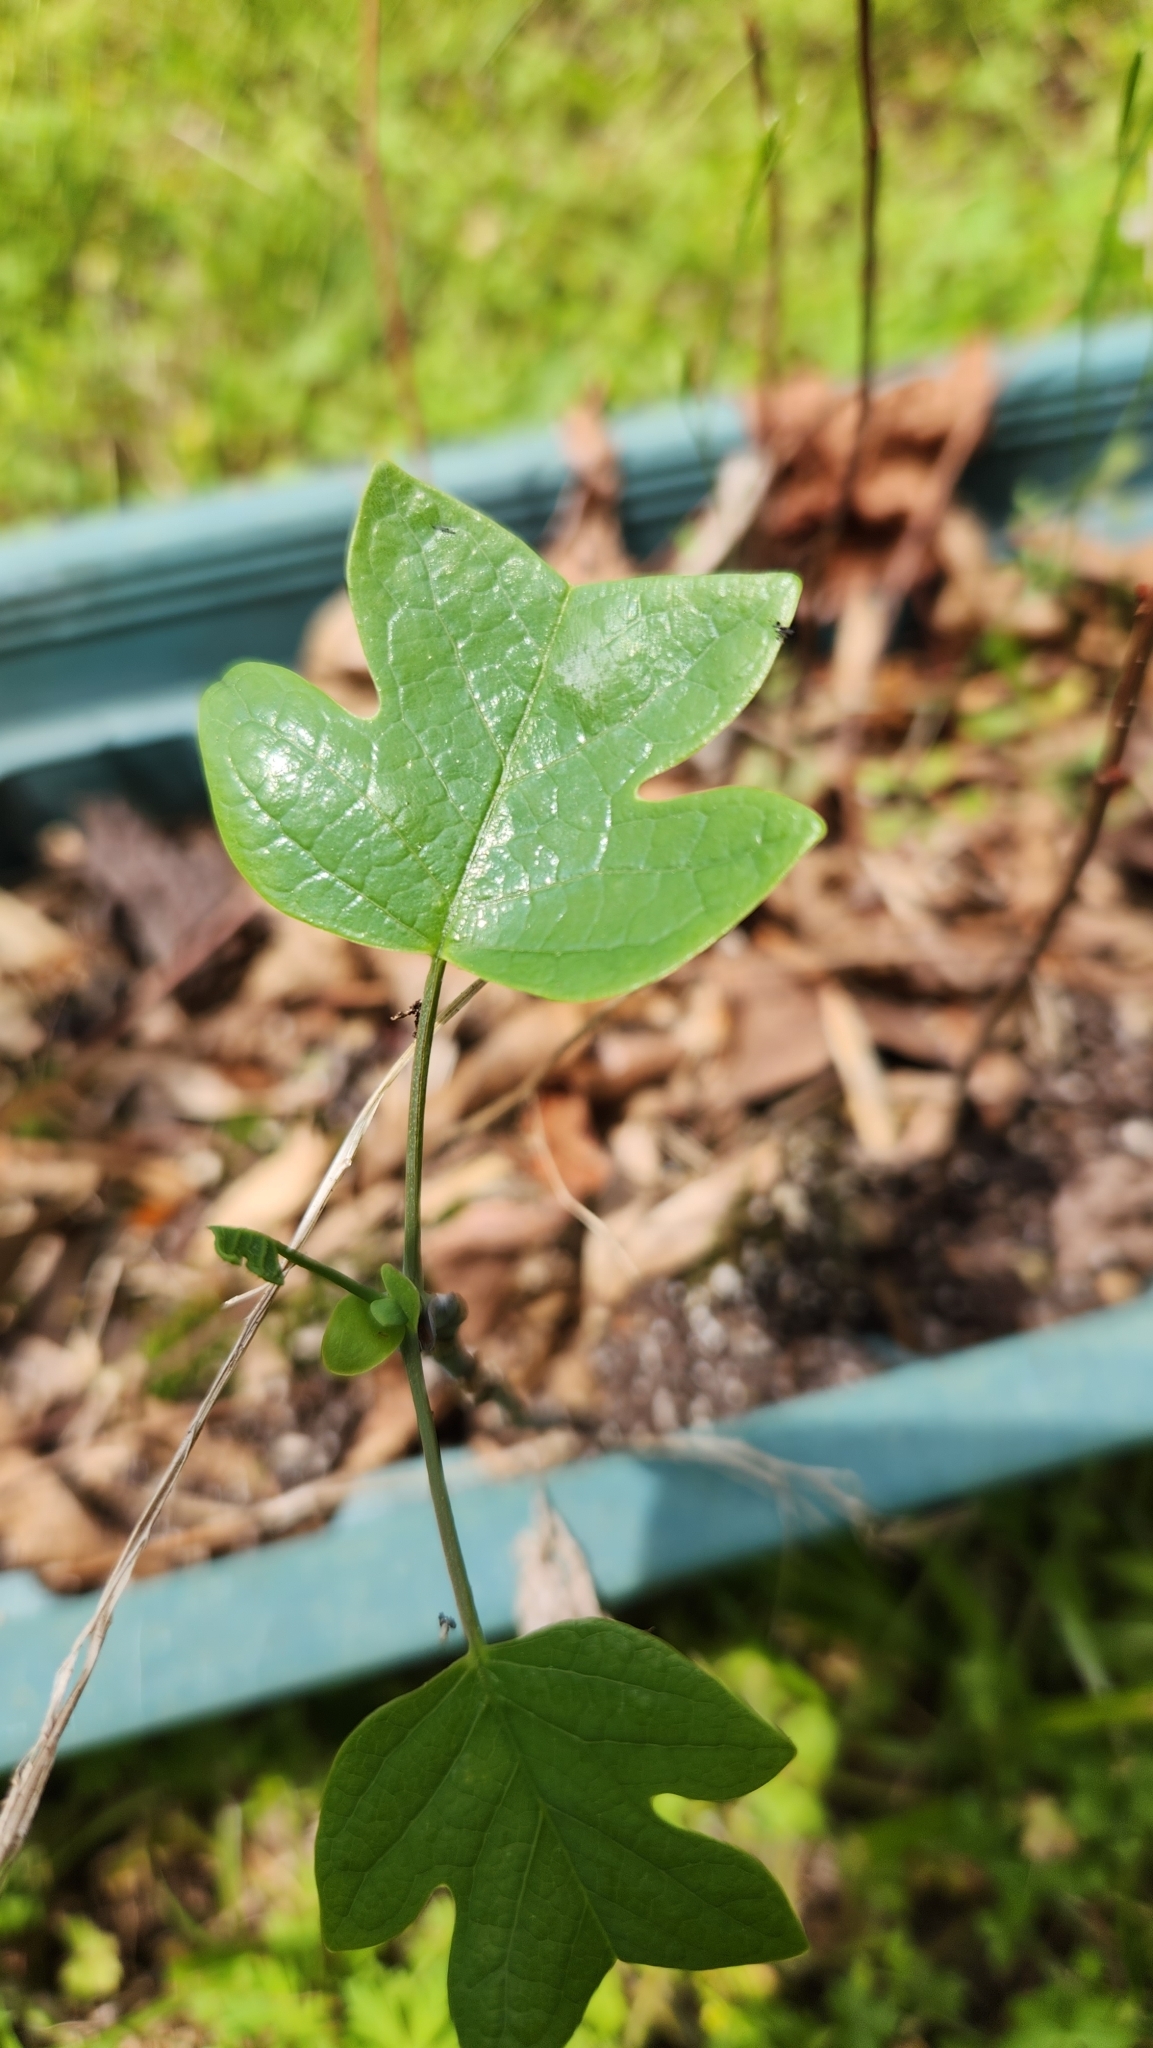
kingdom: Plantae
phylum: Tracheophyta
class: Magnoliopsida
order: Magnoliales
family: Magnoliaceae
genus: Liriodendron
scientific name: Liriodendron tulipifera
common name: Tulip tree
